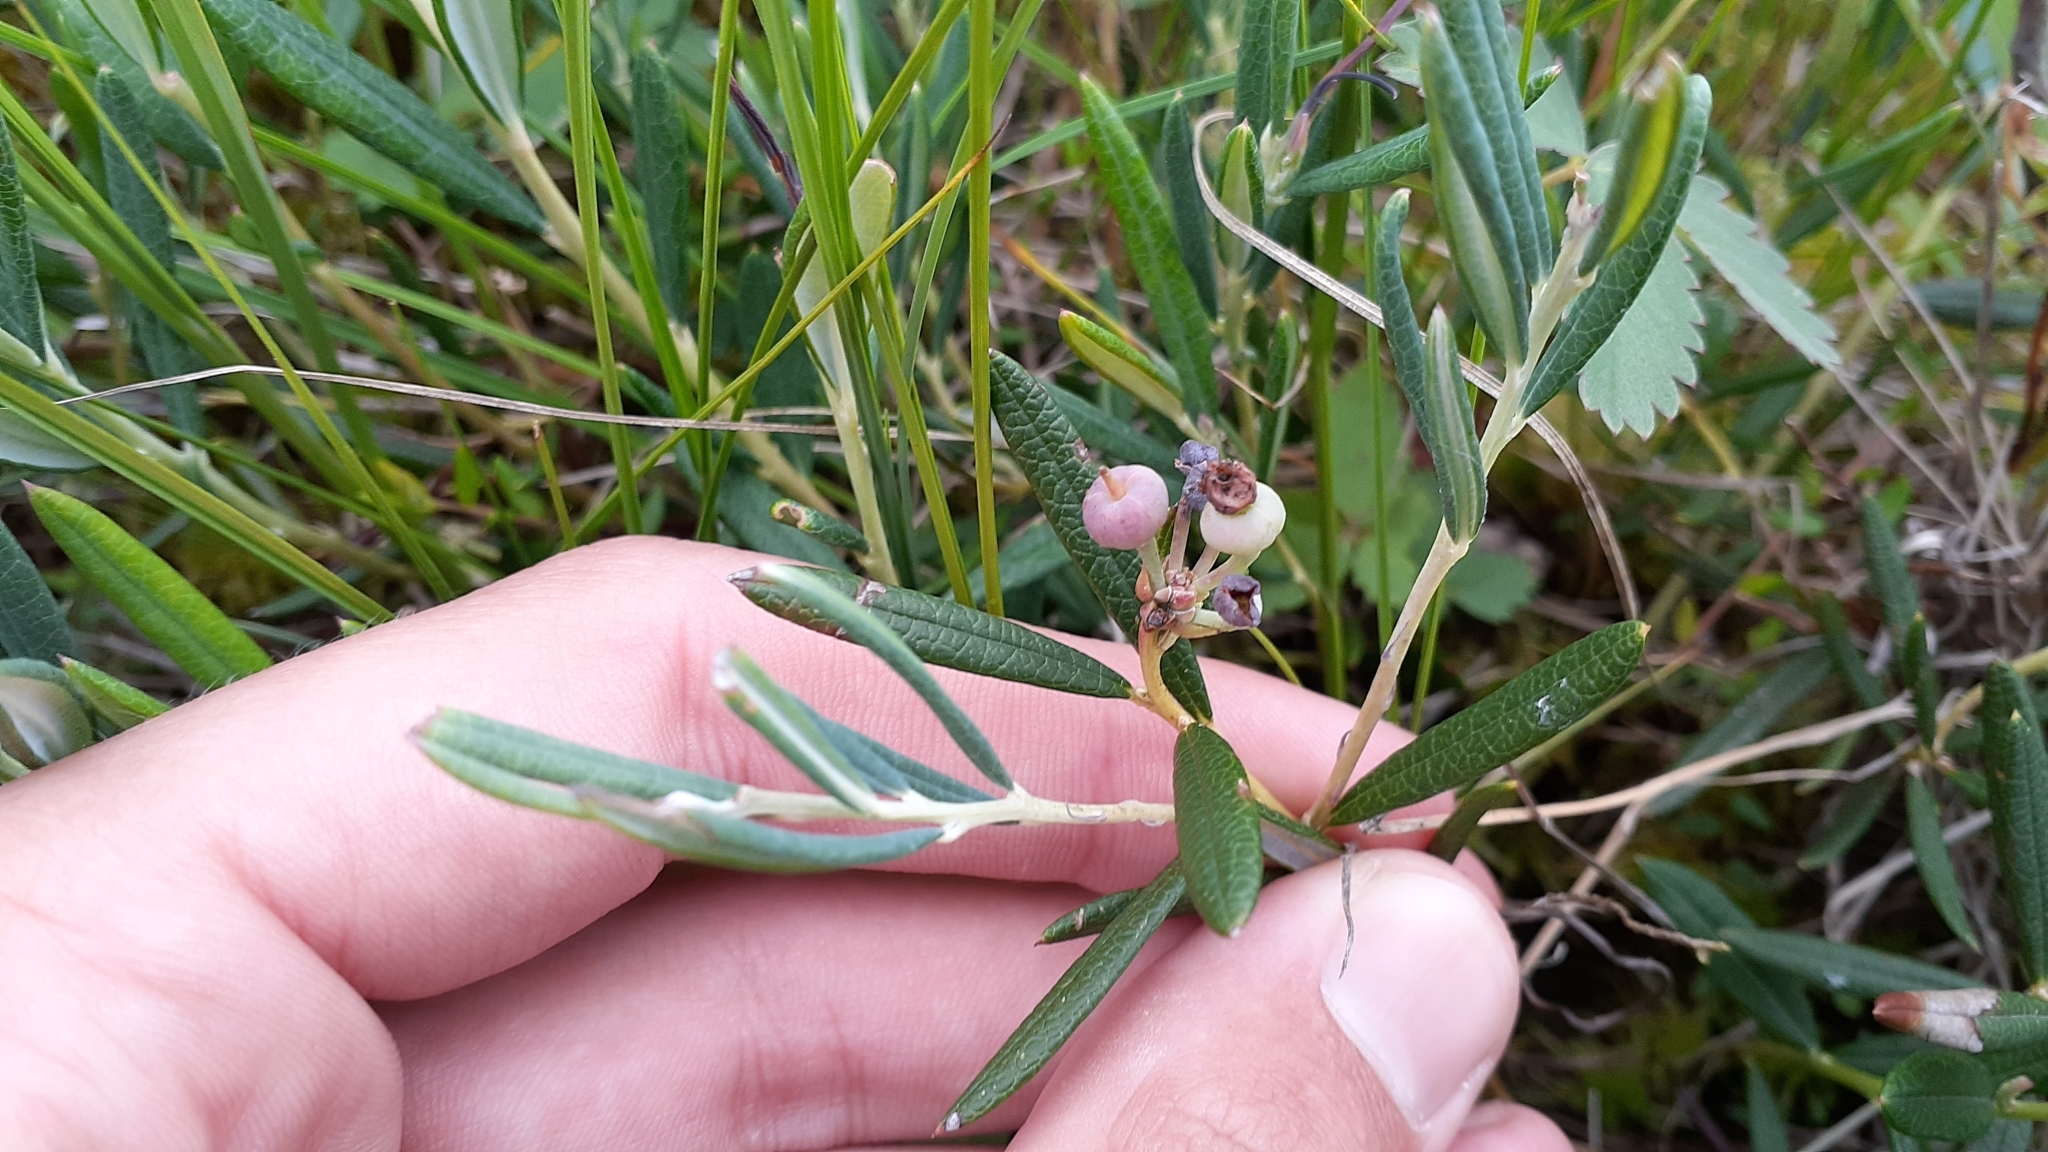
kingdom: Plantae
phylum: Tracheophyta
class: Magnoliopsida
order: Ericales
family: Ericaceae
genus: Andromeda
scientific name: Andromeda polifolia
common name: Bog-rosemary
